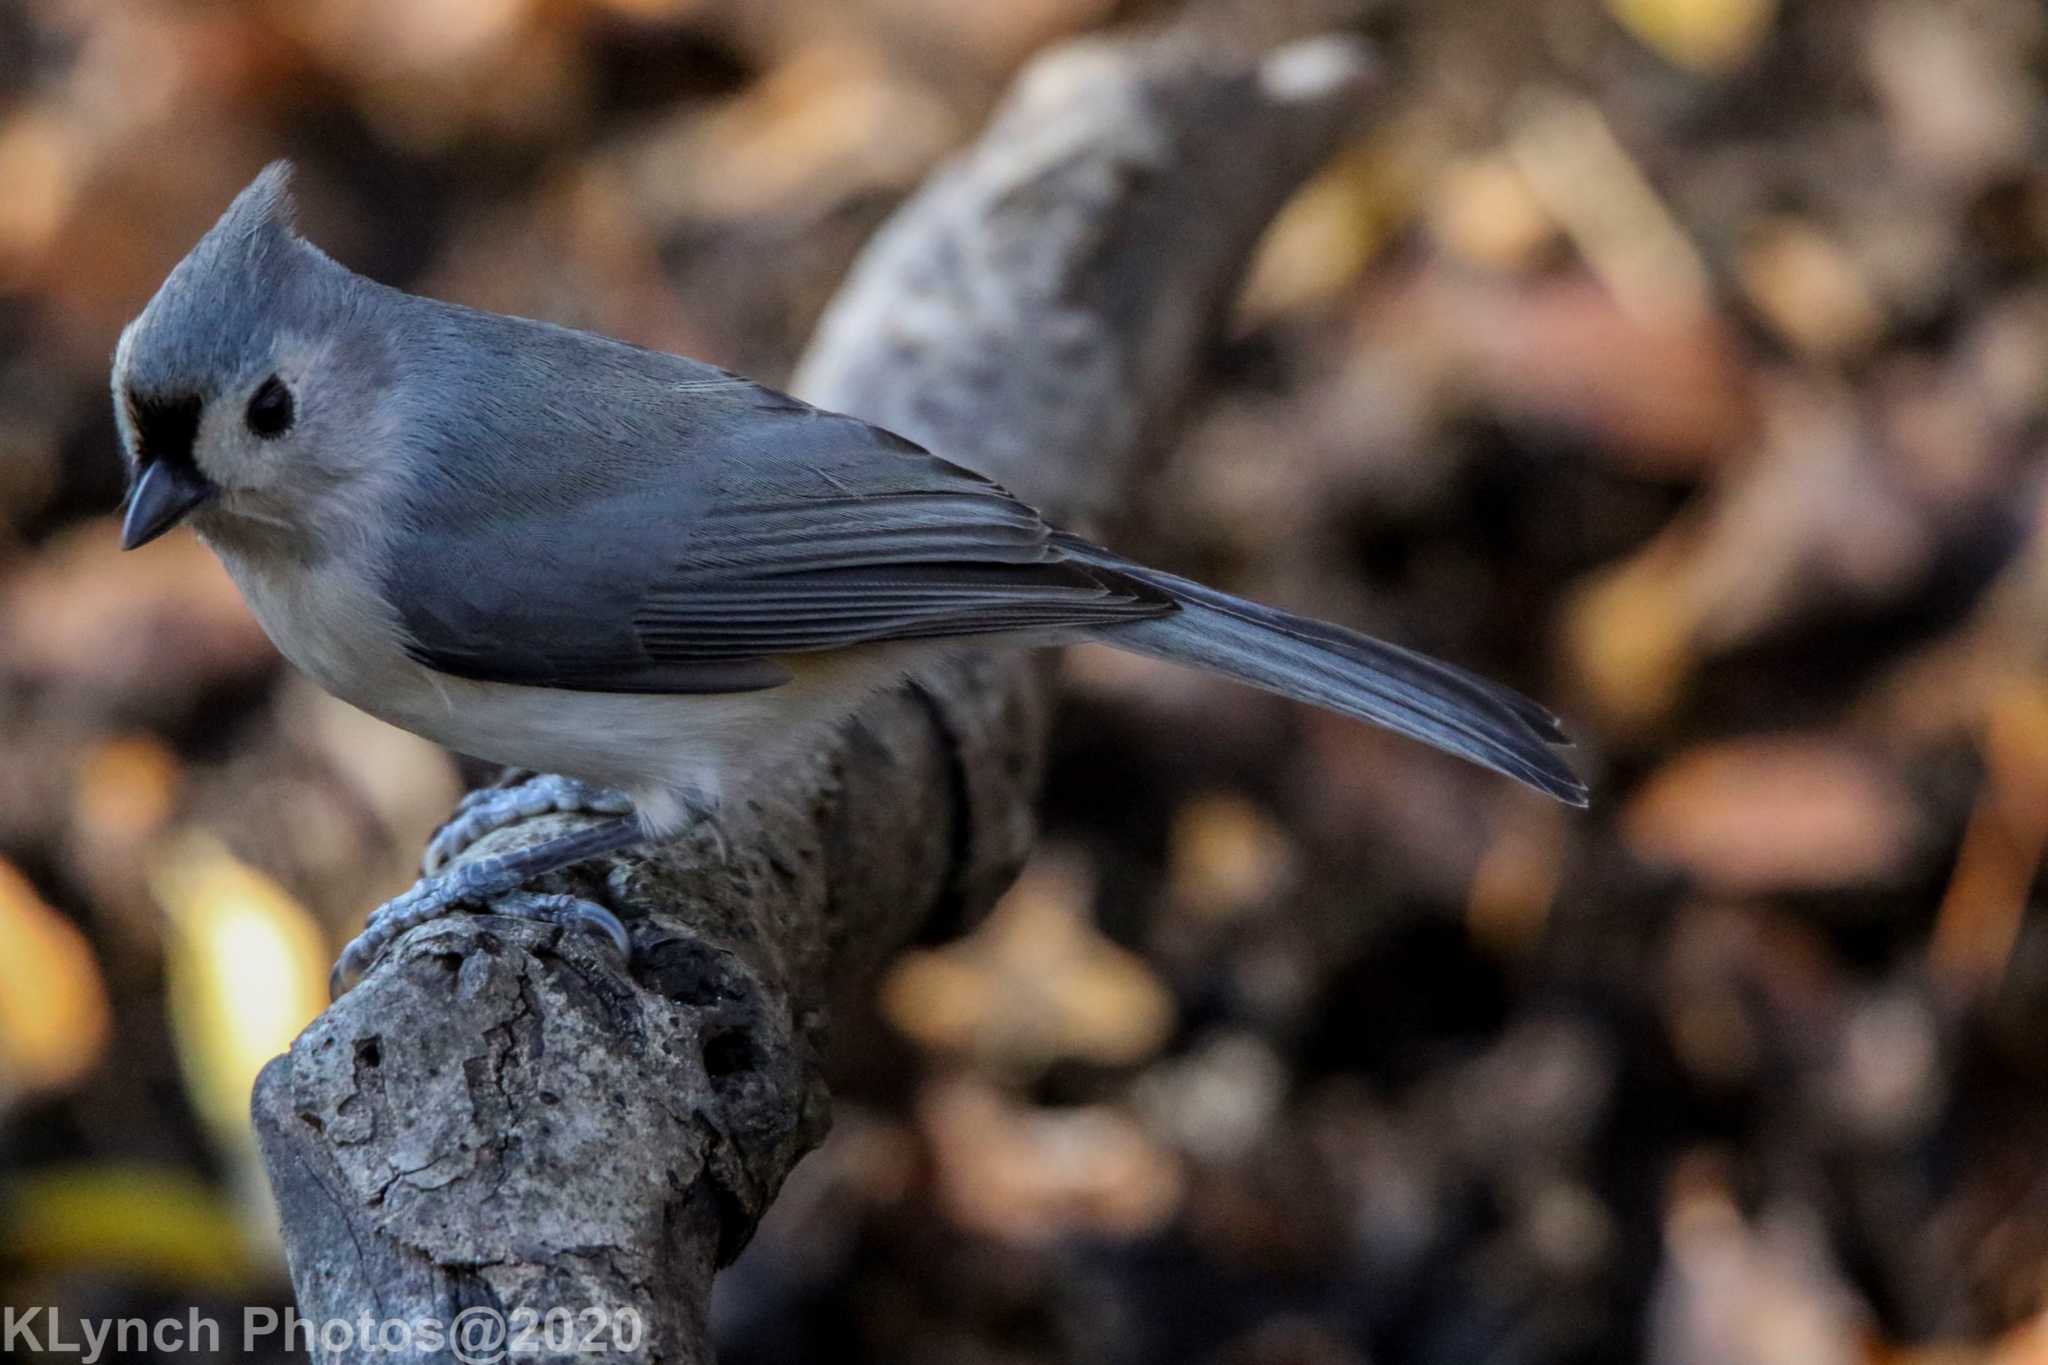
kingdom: Animalia
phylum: Chordata
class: Aves
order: Passeriformes
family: Paridae
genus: Baeolophus
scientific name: Baeolophus bicolor
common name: Tufted titmouse
